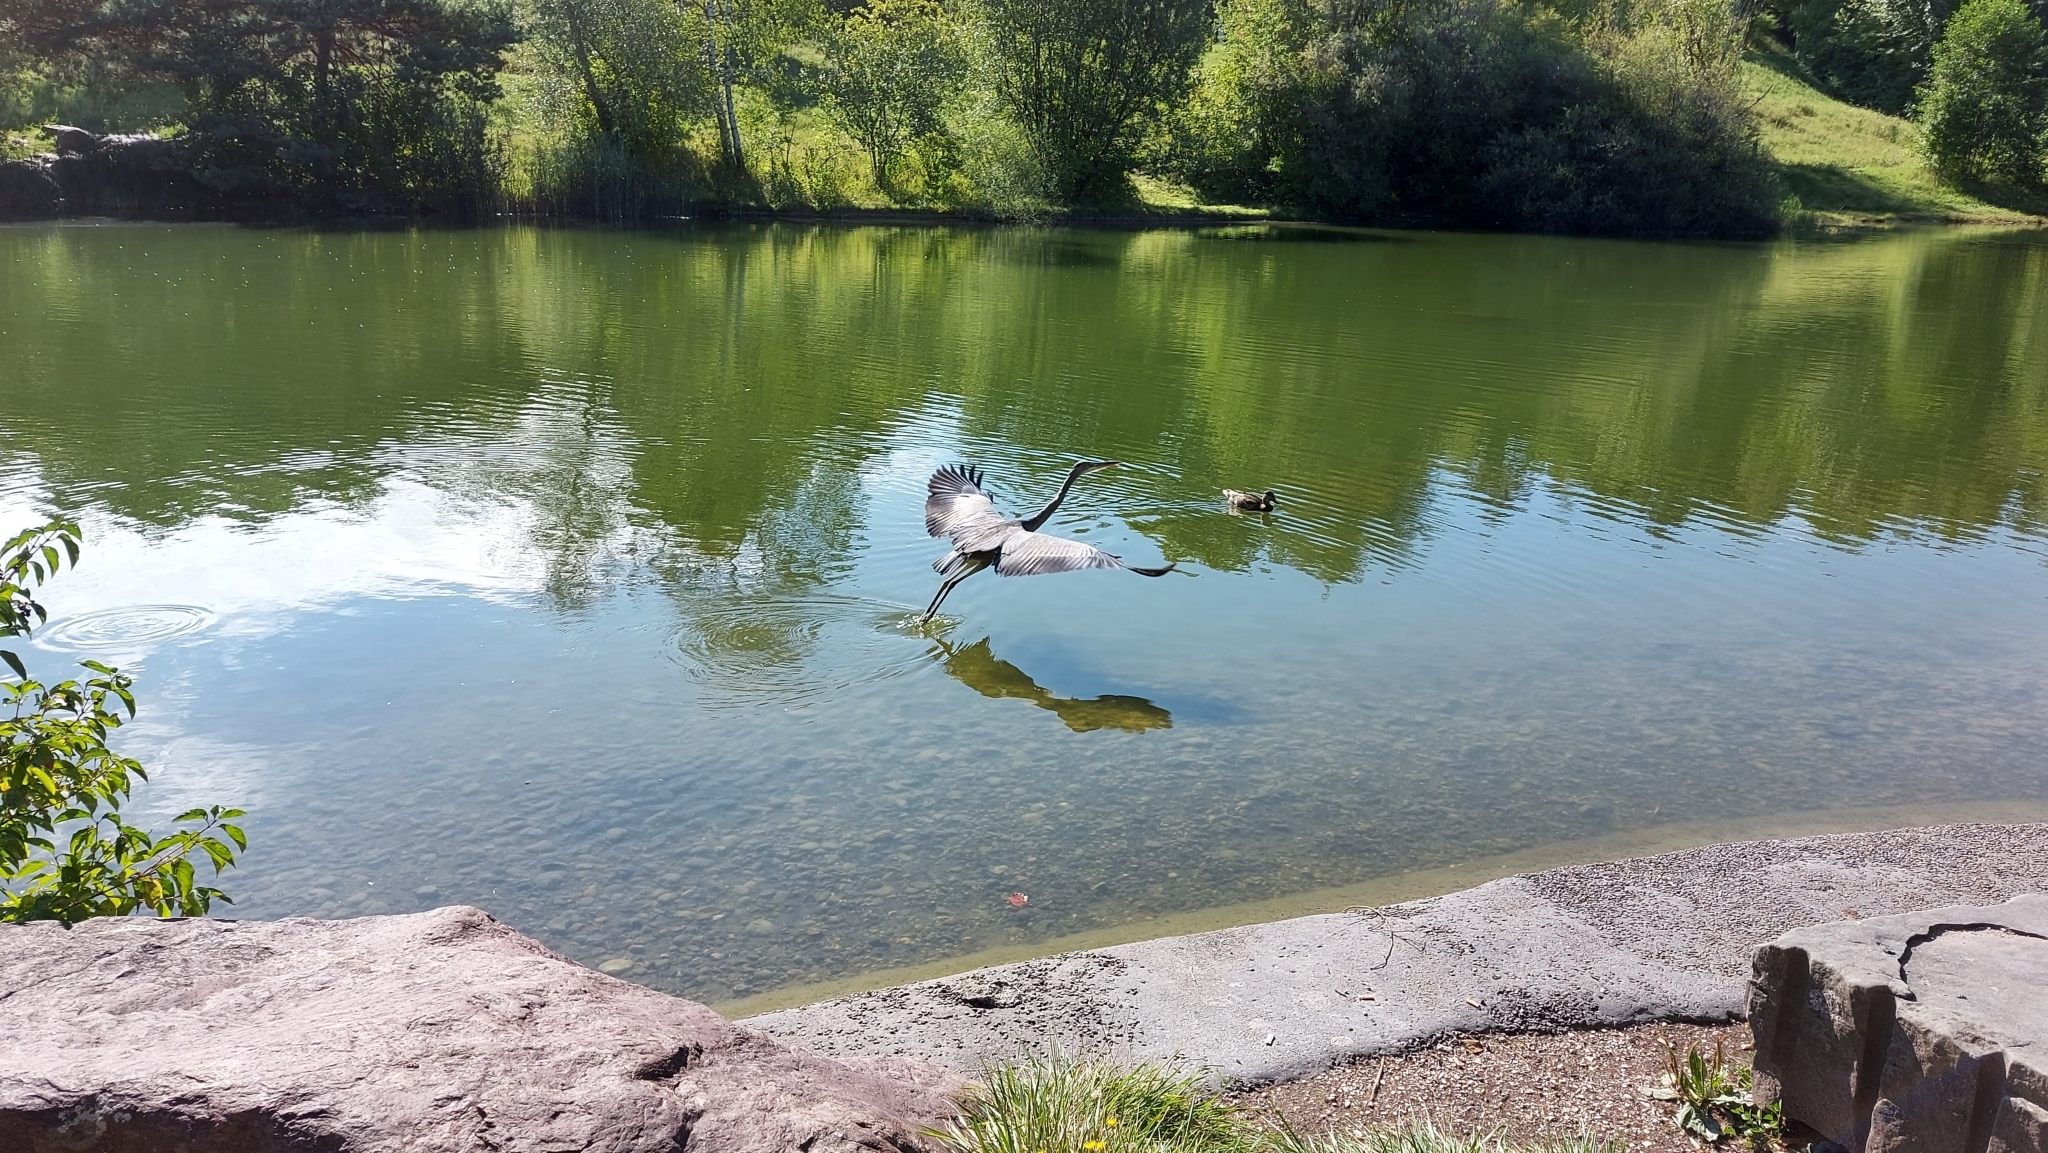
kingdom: Animalia
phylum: Chordata
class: Aves
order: Pelecaniformes
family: Ardeidae
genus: Ardea
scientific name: Ardea cinerea
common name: Grey heron
